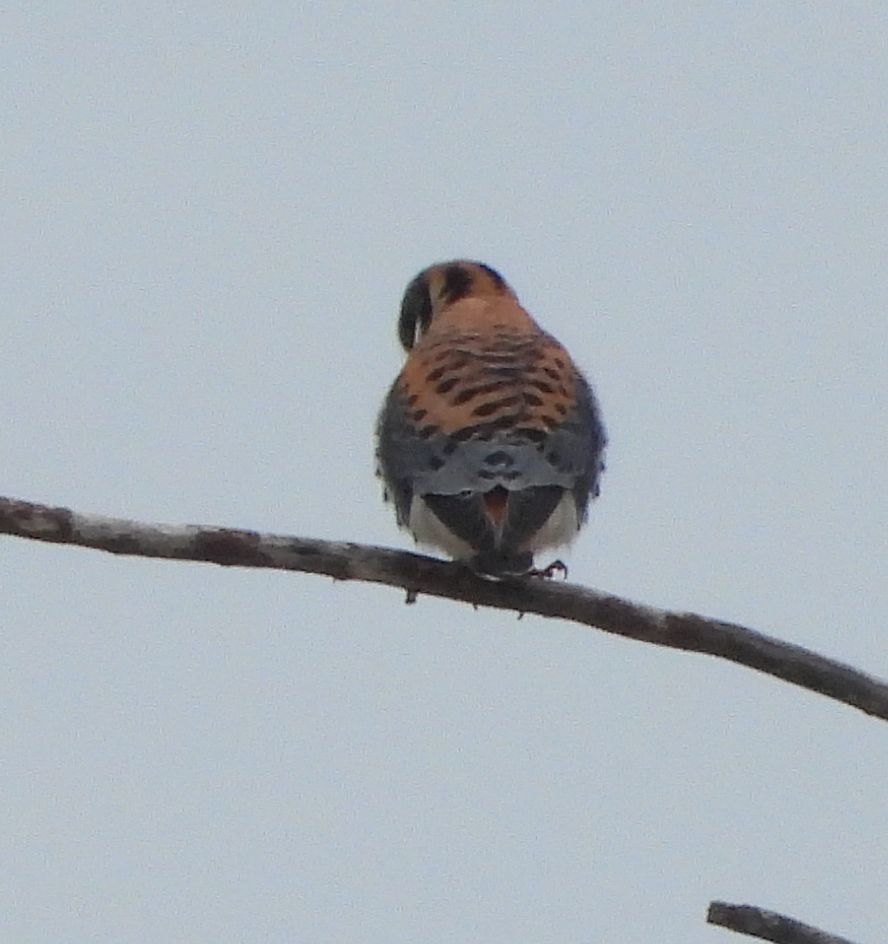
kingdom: Animalia
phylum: Chordata
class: Aves
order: Falconiformes
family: Falconidae
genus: Falco
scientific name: Falco sparverius
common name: American kestrel
